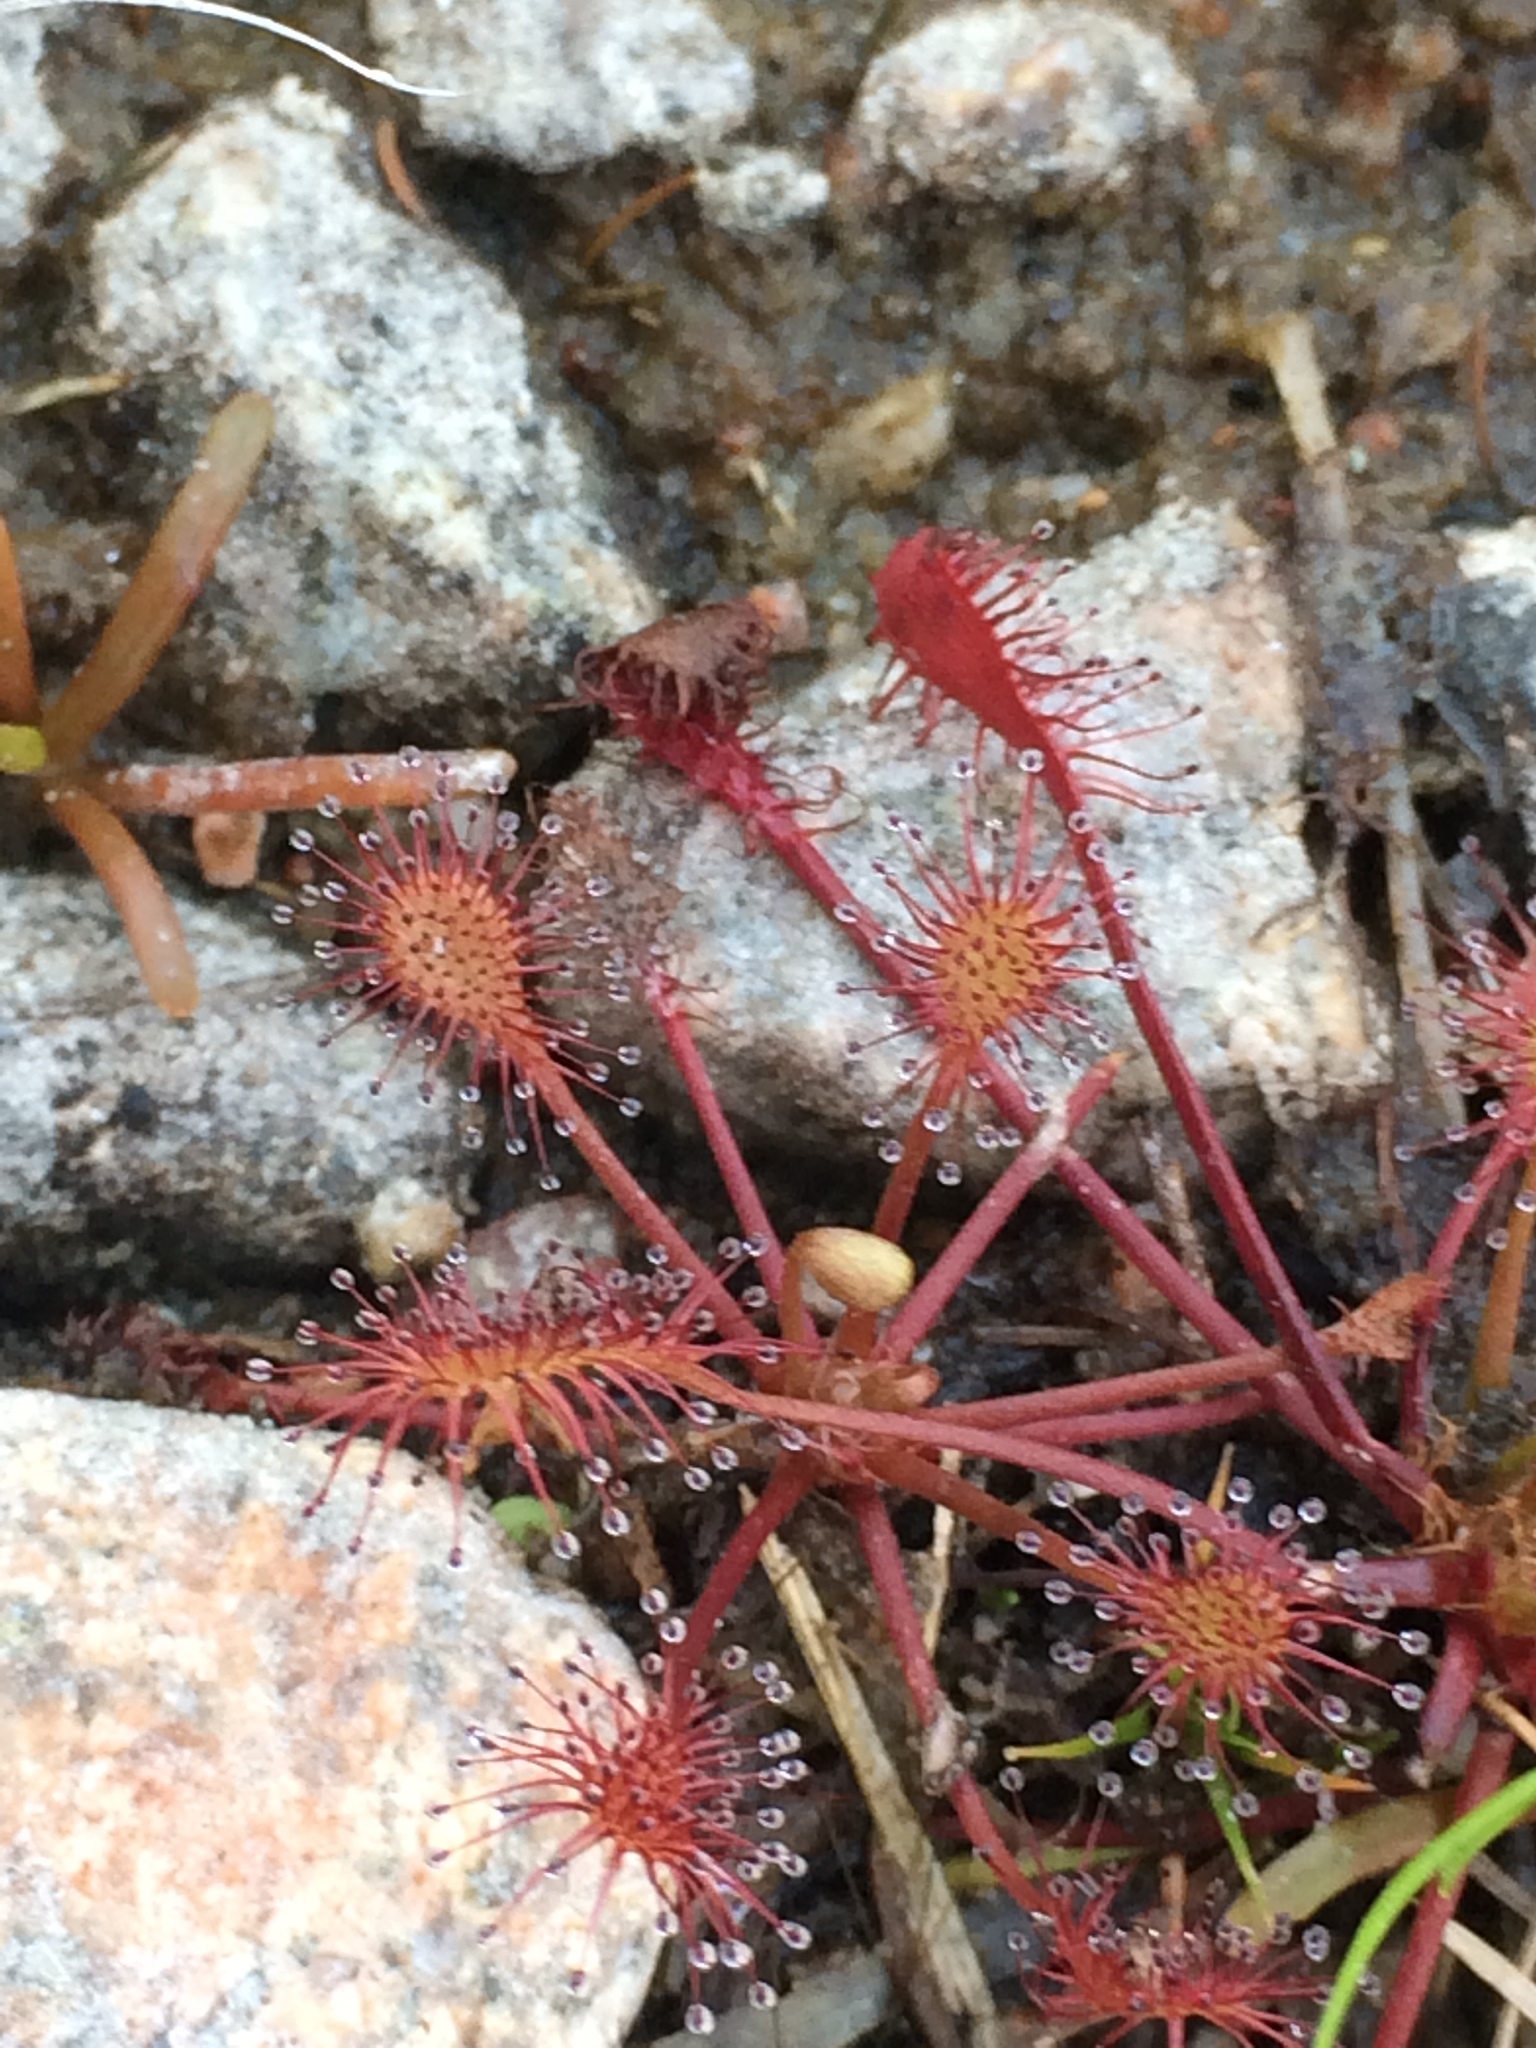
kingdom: Plantae
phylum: Tracheophyta
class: Magnoliopsida
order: Caryophyllales
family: Droseraceae
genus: Drosera
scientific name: Drosera intermedia
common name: Oblong-leaved sundew
